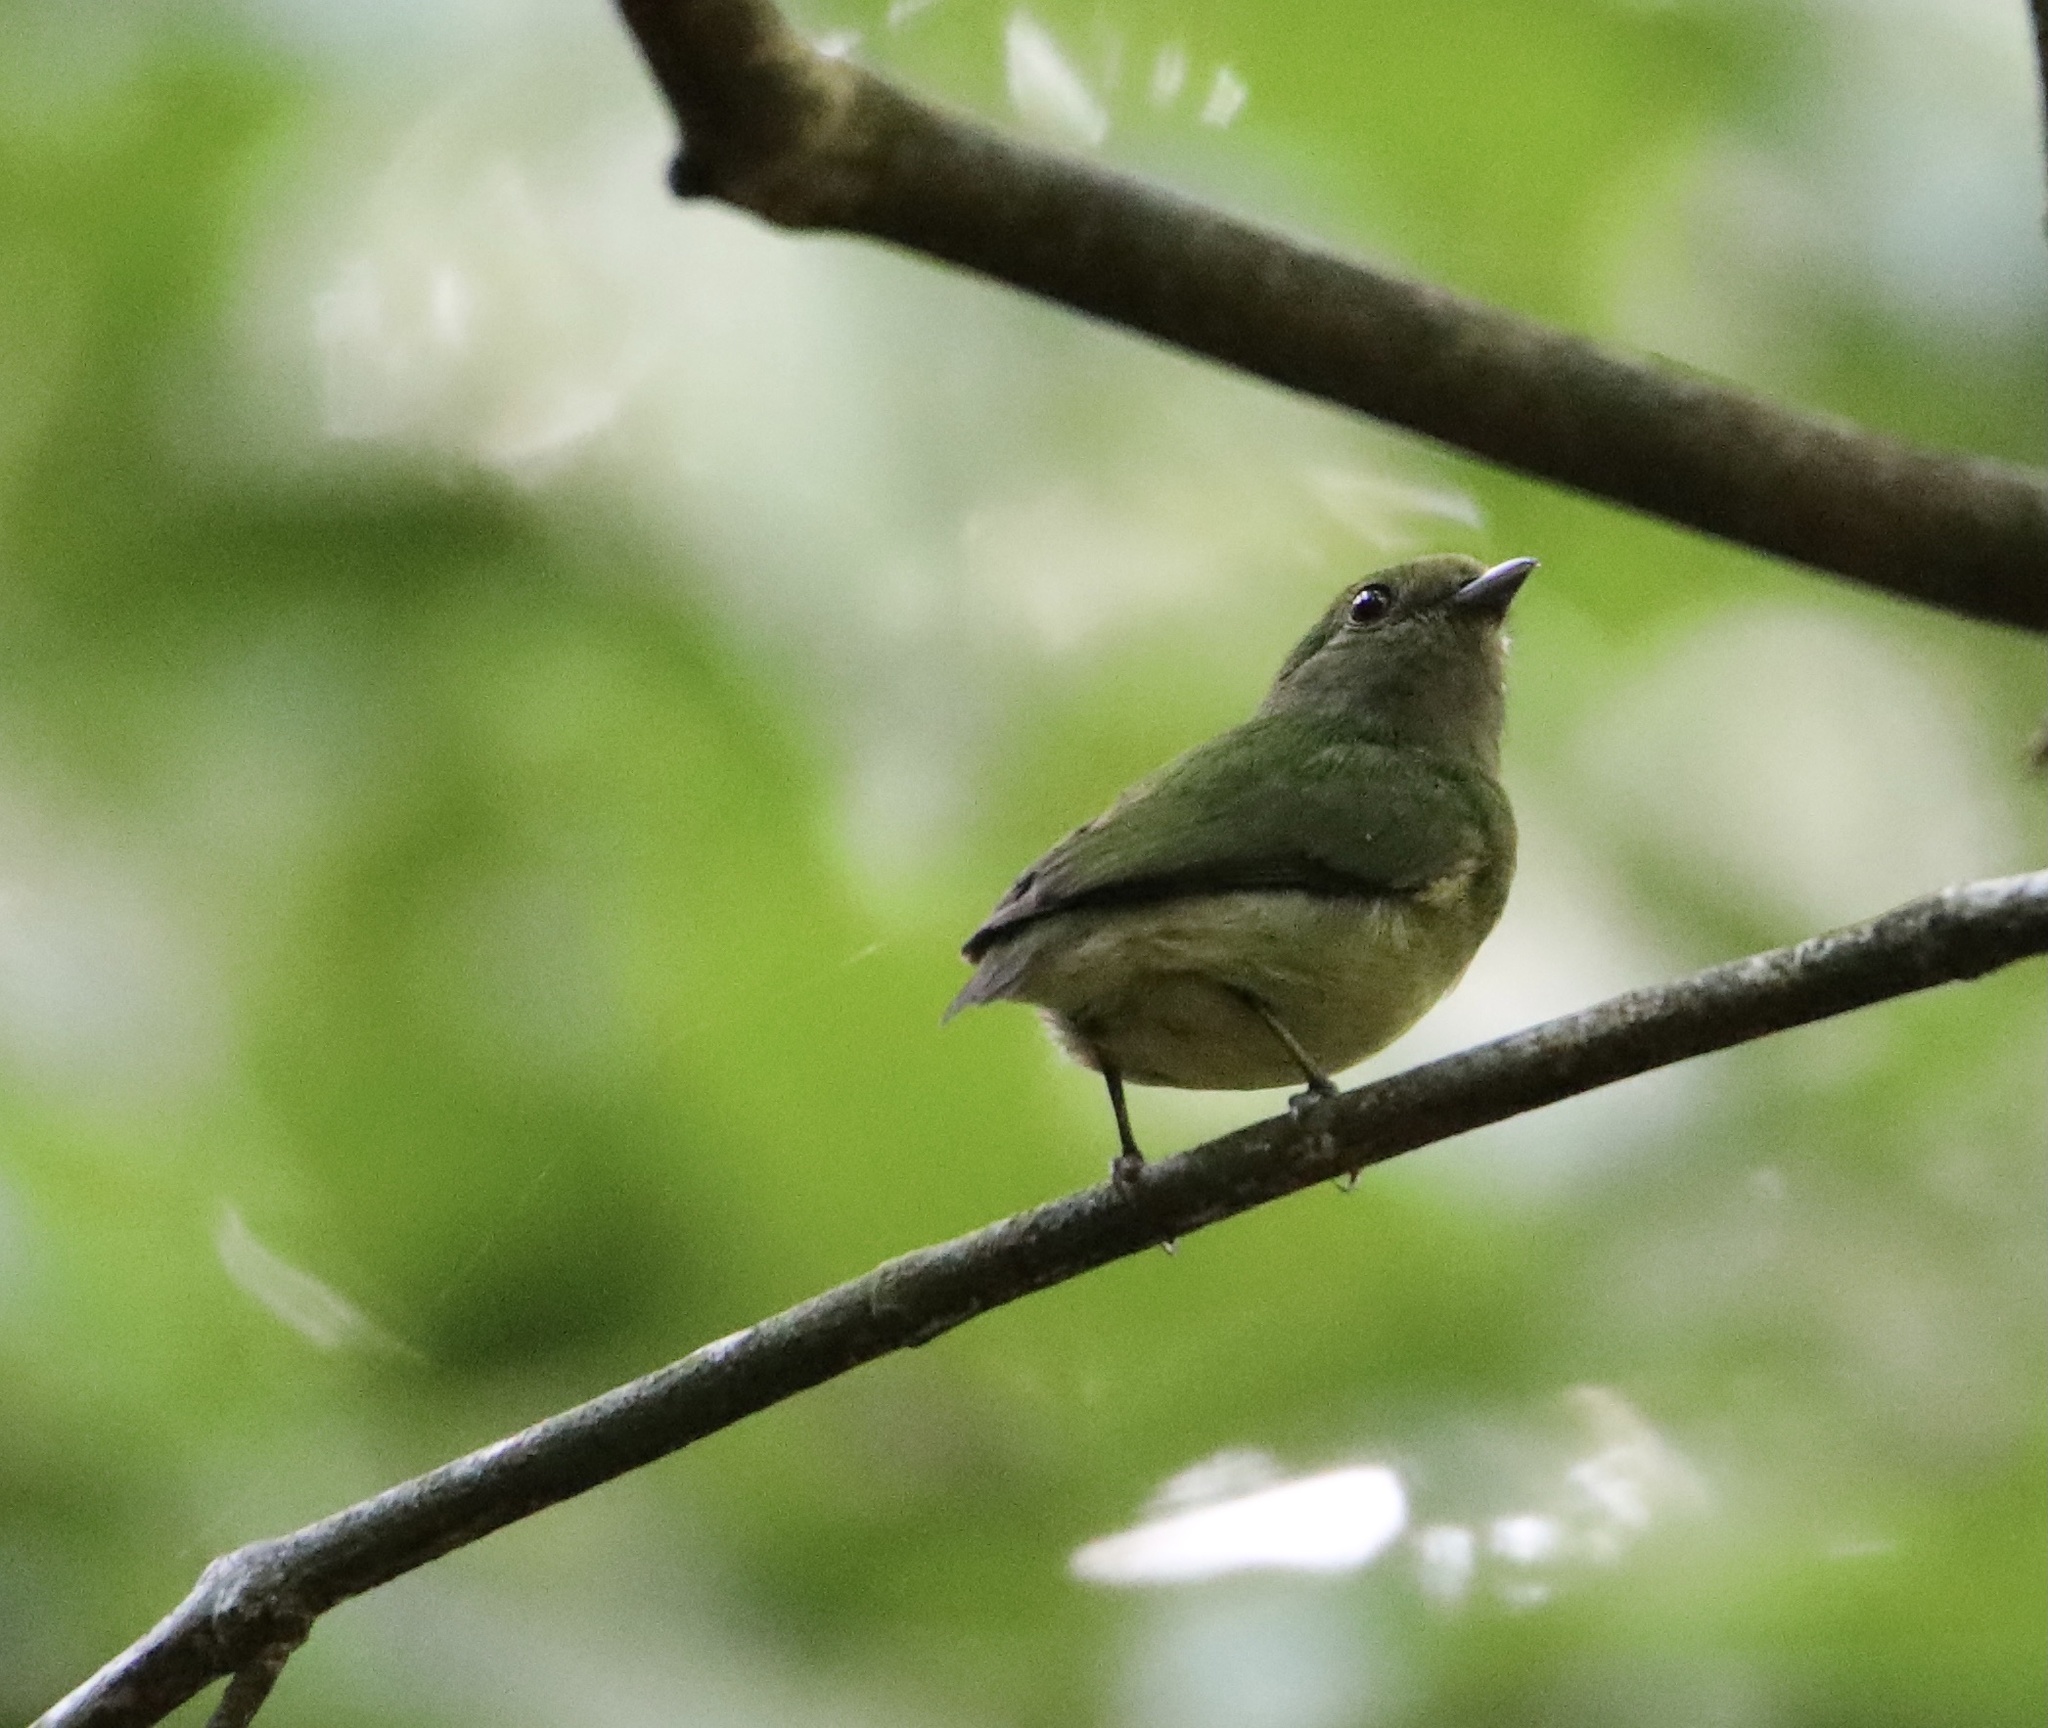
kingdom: Animalia
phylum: Chordata
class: Aves
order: Passeriformes
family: Pipridae
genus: Lepidothrix
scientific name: Lepidothrix coronata
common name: Blue-crowned manakin
